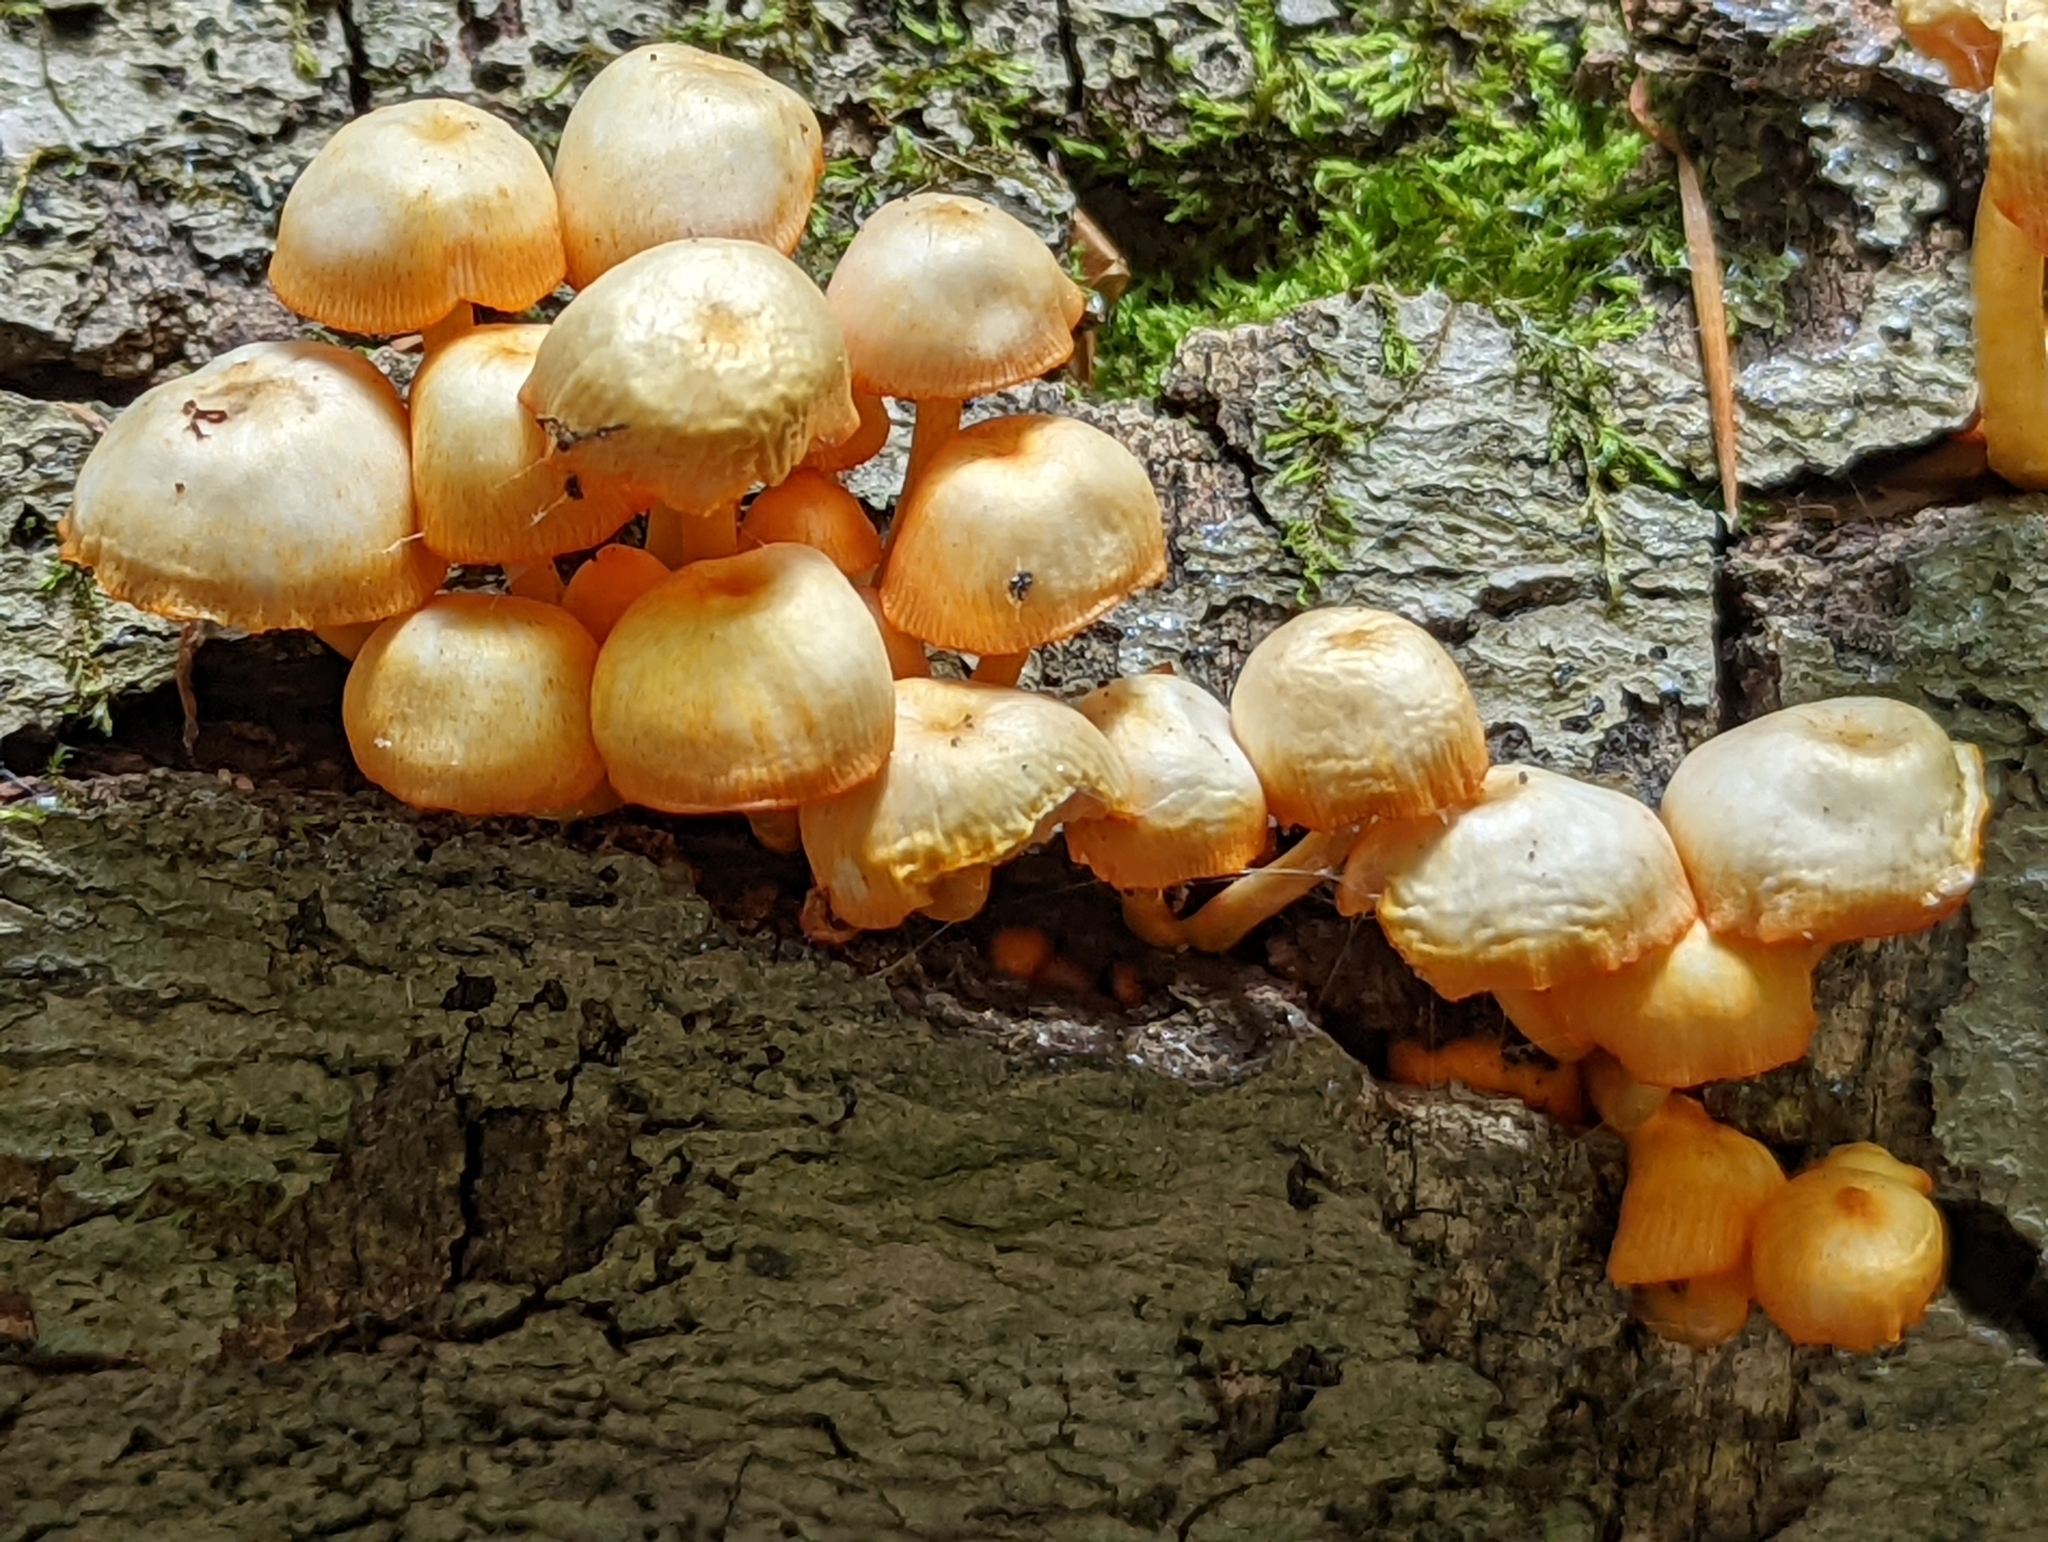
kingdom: Fungi
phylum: Basidiomycota
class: Agaricomycetes
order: Agaricales
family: Mycenaceae
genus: Mycena
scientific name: Mycena leaiana
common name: Orange mycena
